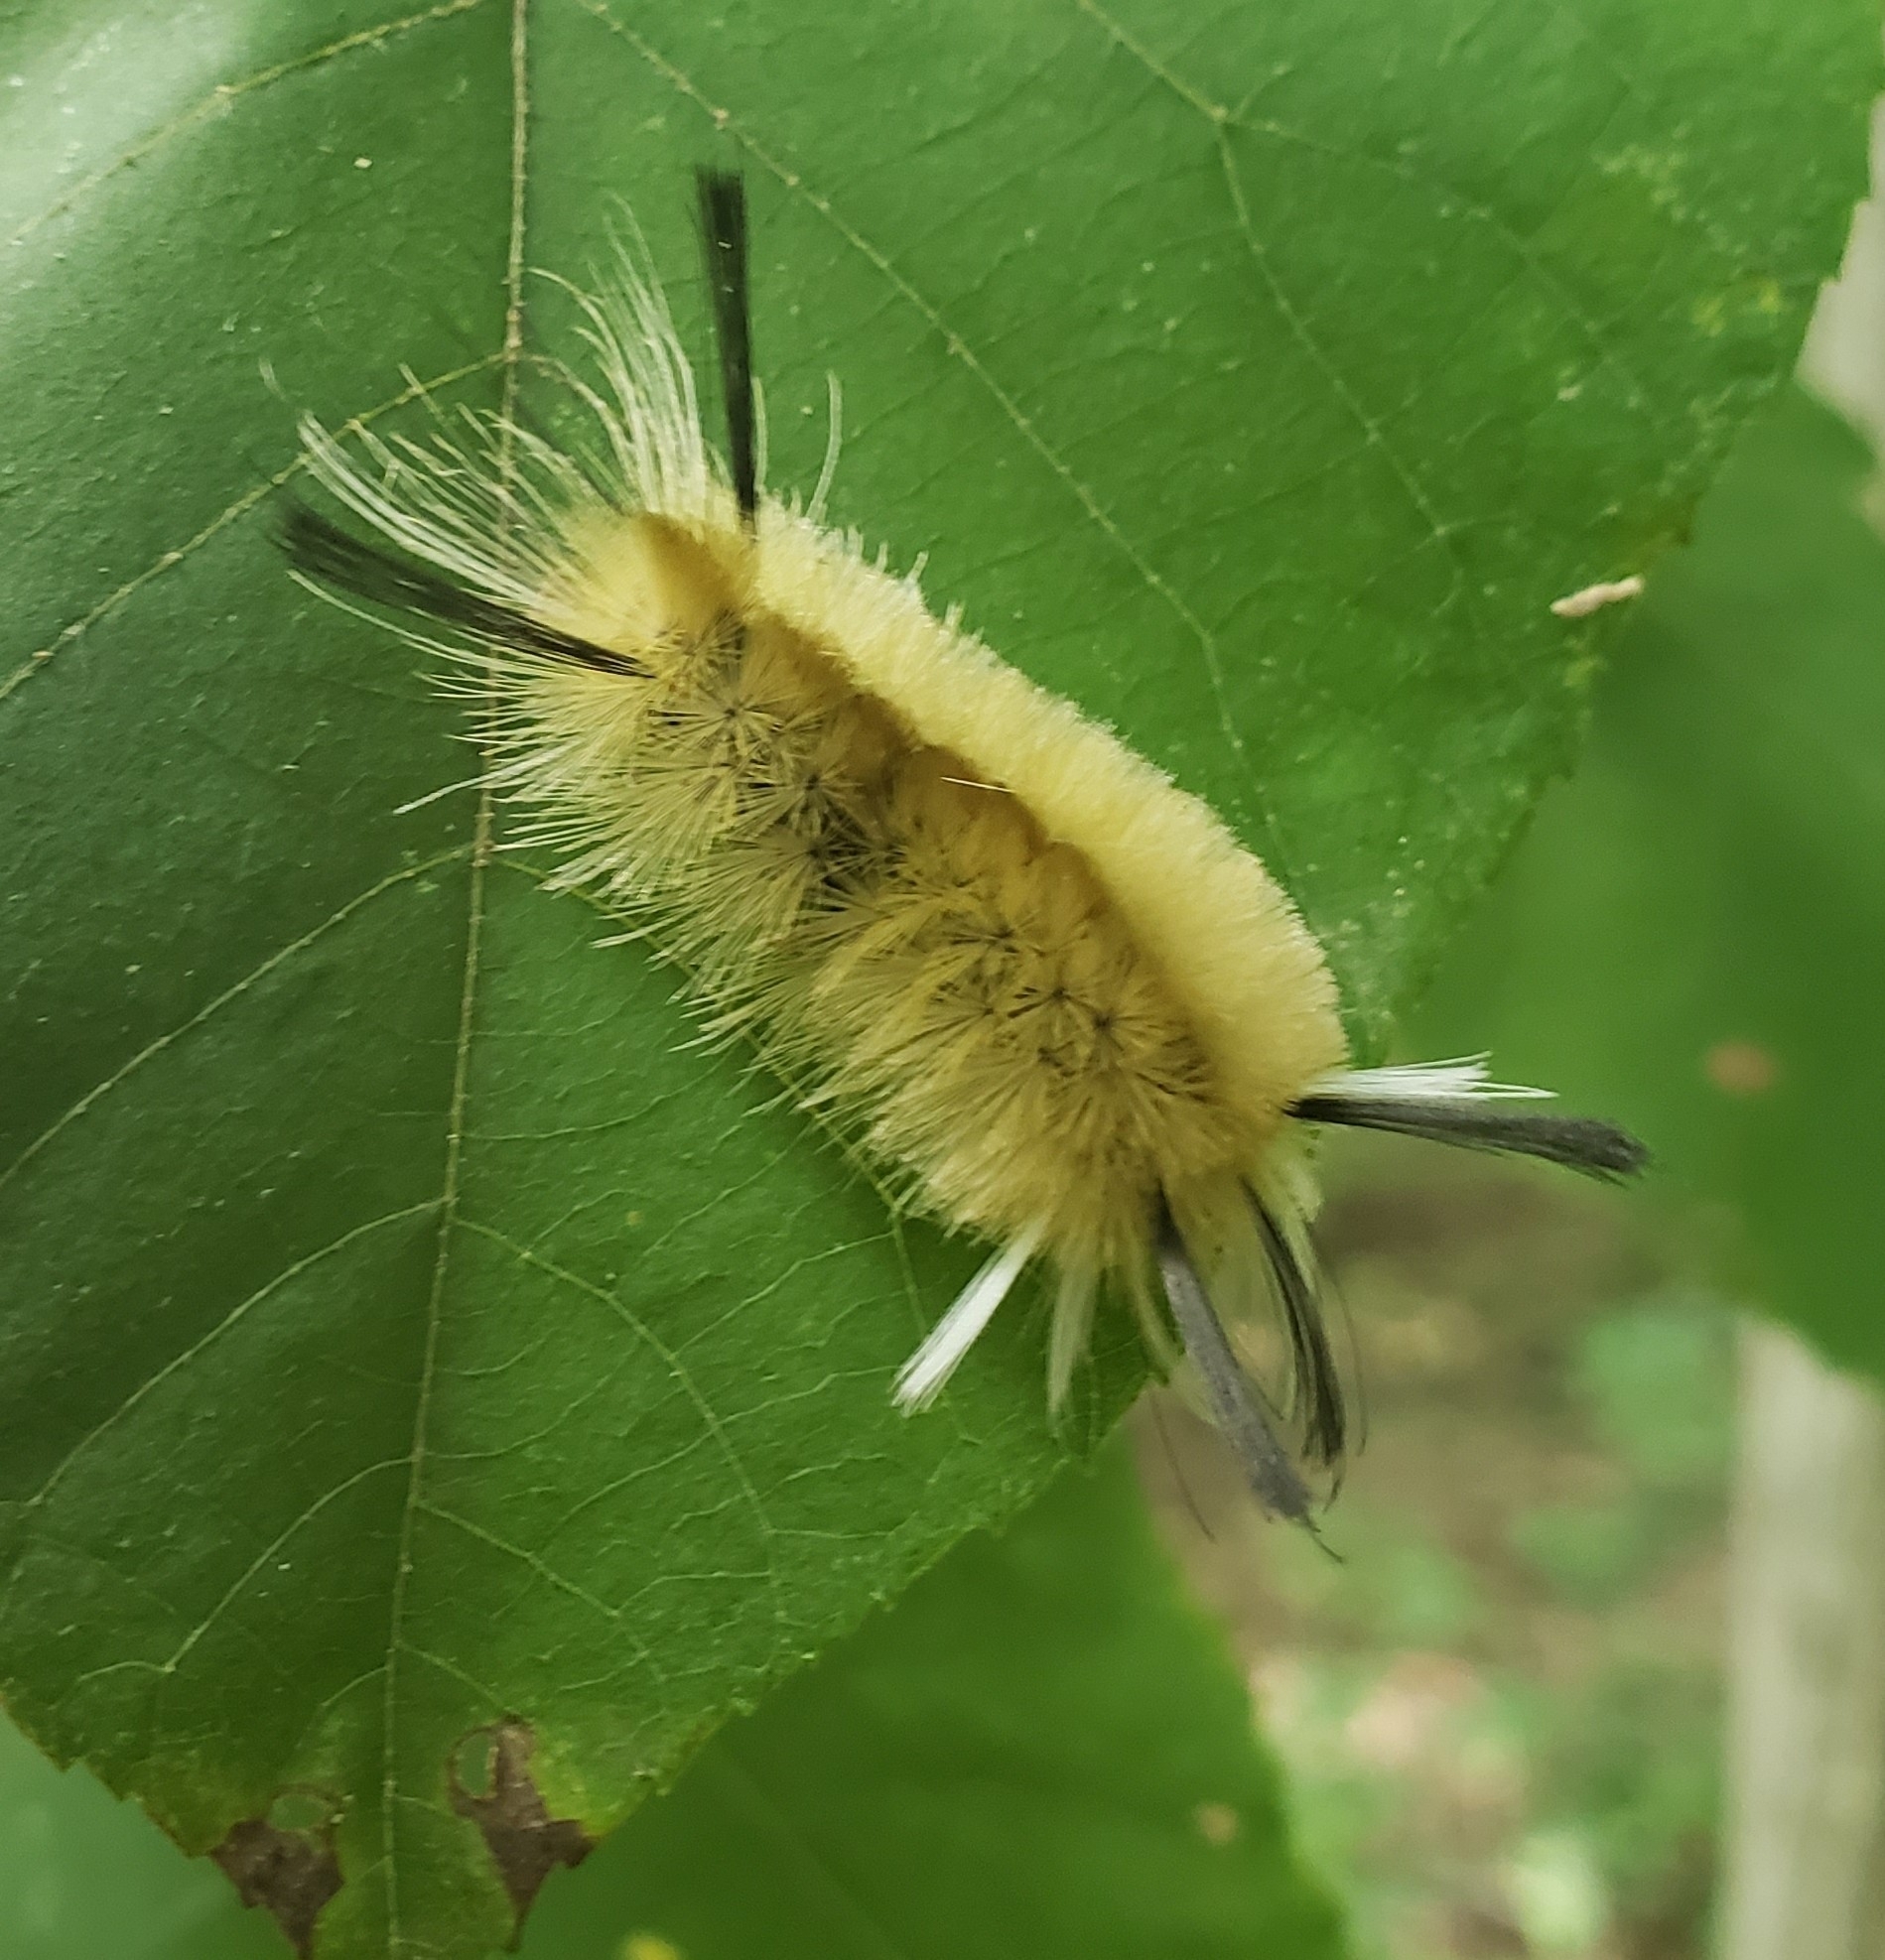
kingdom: Animalia
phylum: Arthropoda
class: Insecta
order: Lepidoptera
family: Erebidae
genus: Halysidota
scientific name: Halysidota tessellaris
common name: Banded tussock moth
